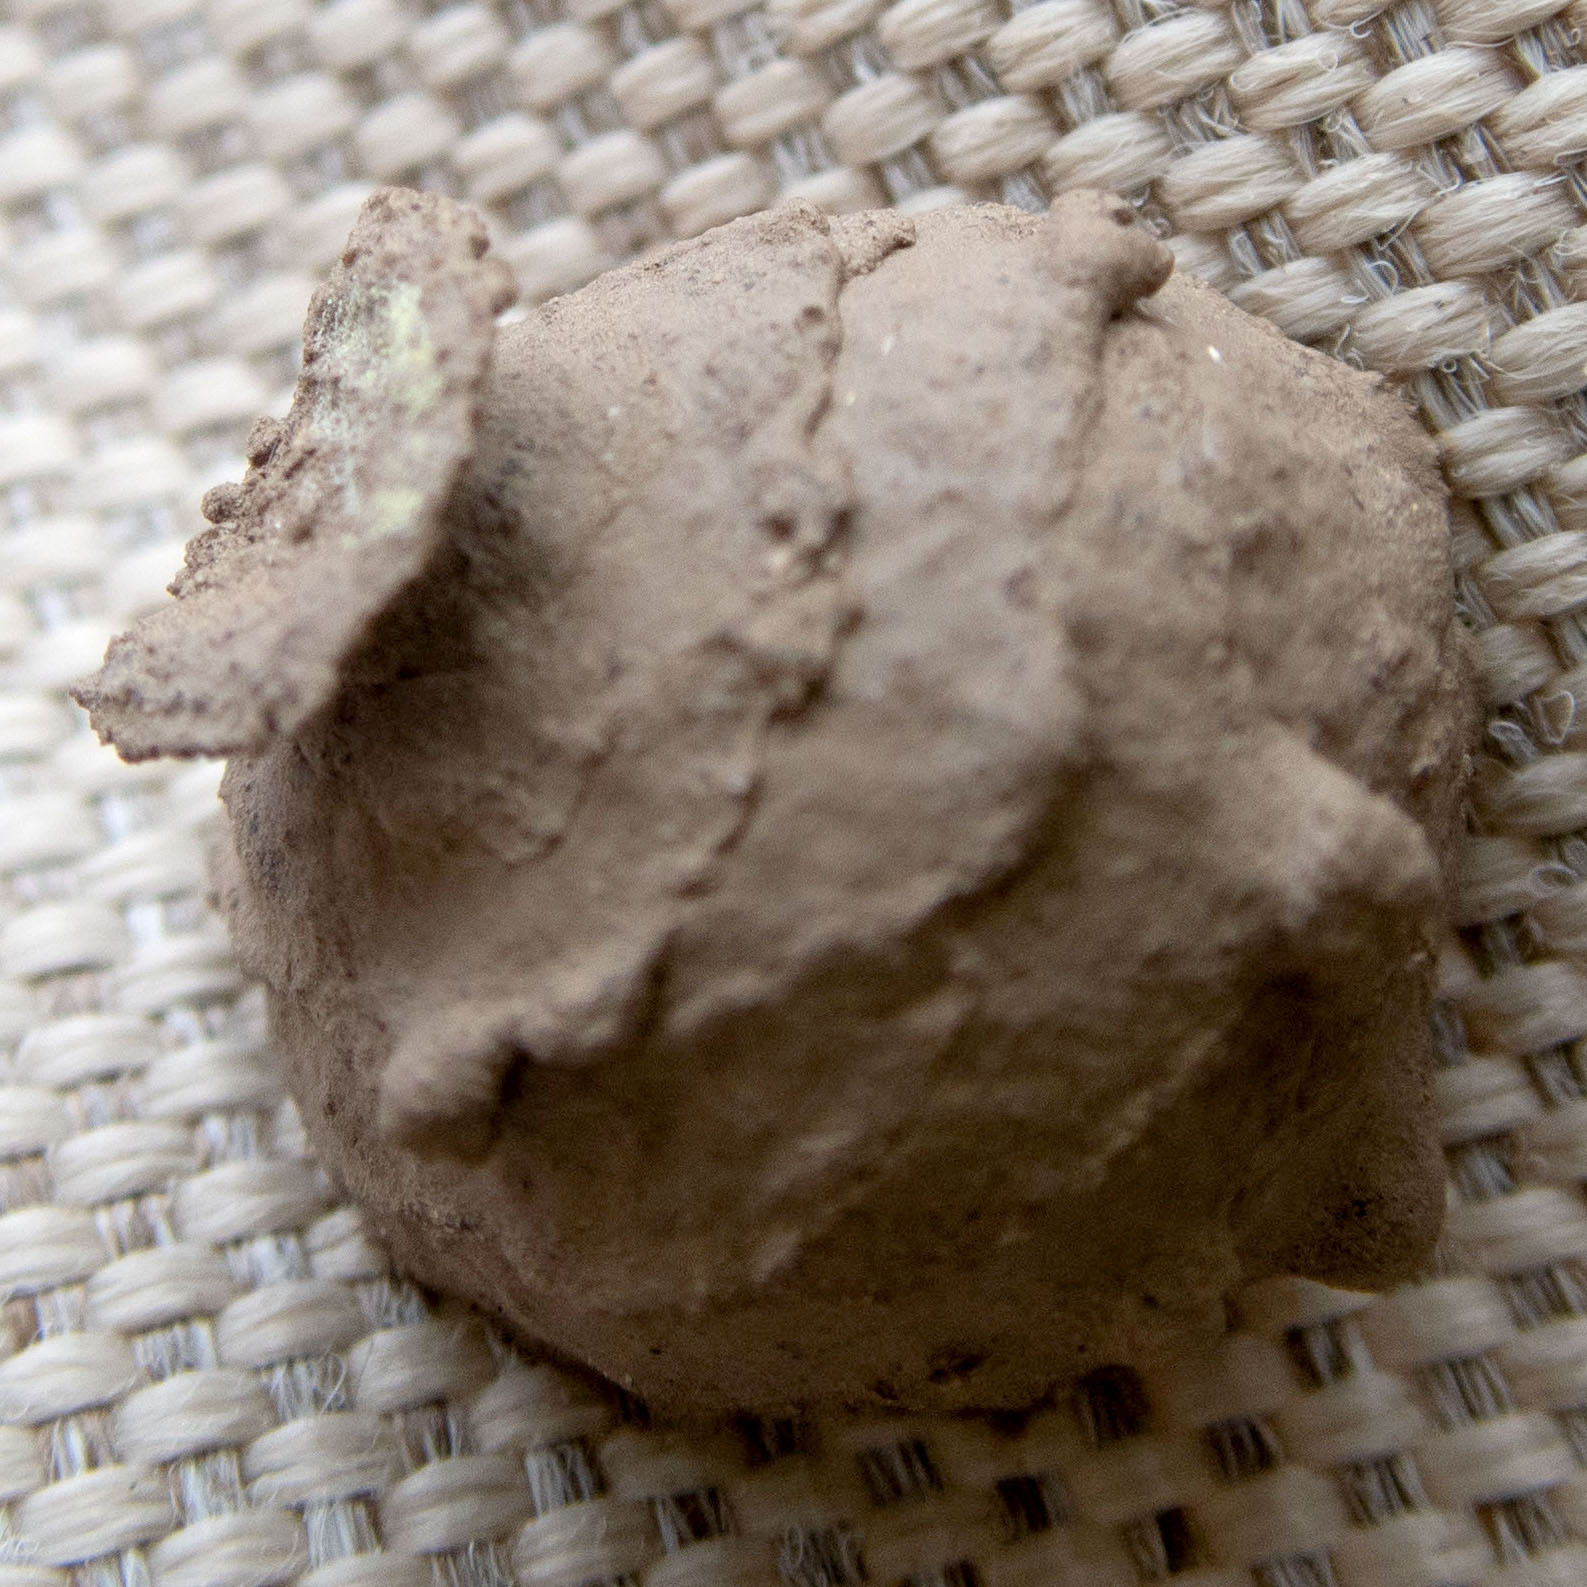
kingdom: Animalia
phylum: Arthropoda
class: Insecta
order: Hymenoptera
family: Vespidae
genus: Eumenes
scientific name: Eumenes
